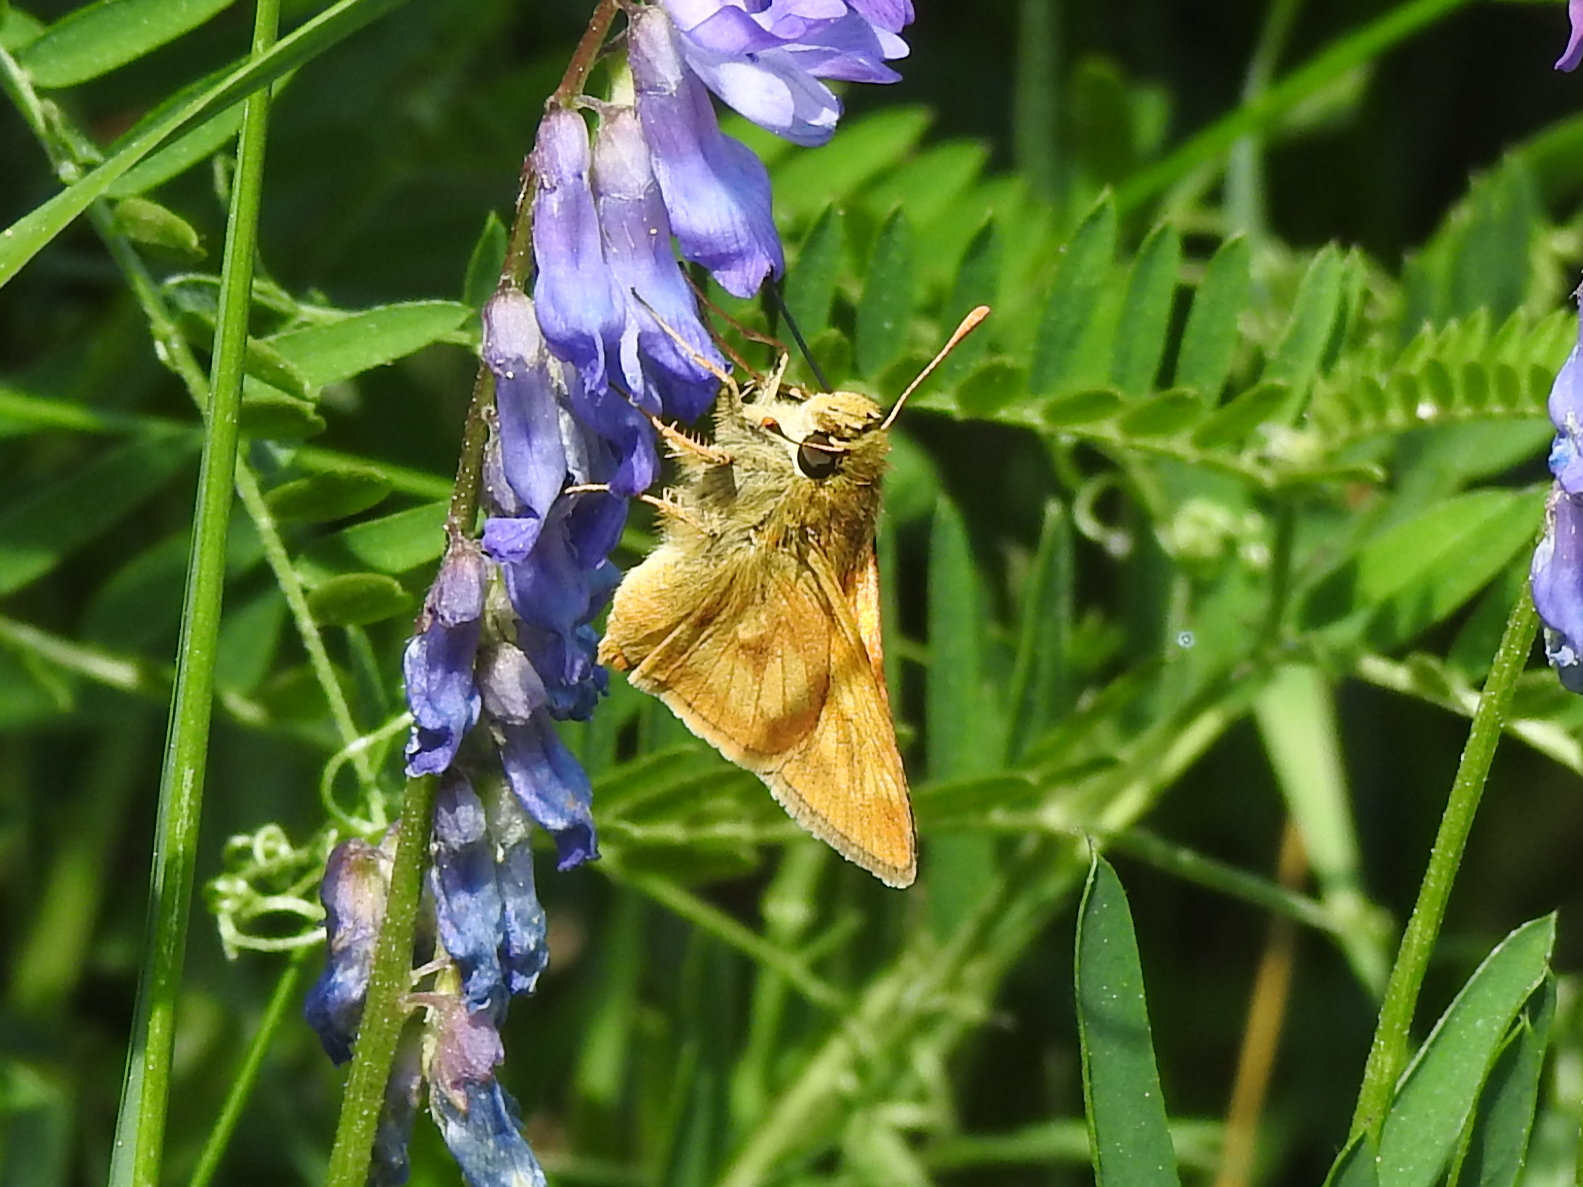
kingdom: Animalia
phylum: Arthropoda
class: Insecta
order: Lepidoptera
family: Hesperiidae
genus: Polites
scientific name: Polites mystic
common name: Long dash
